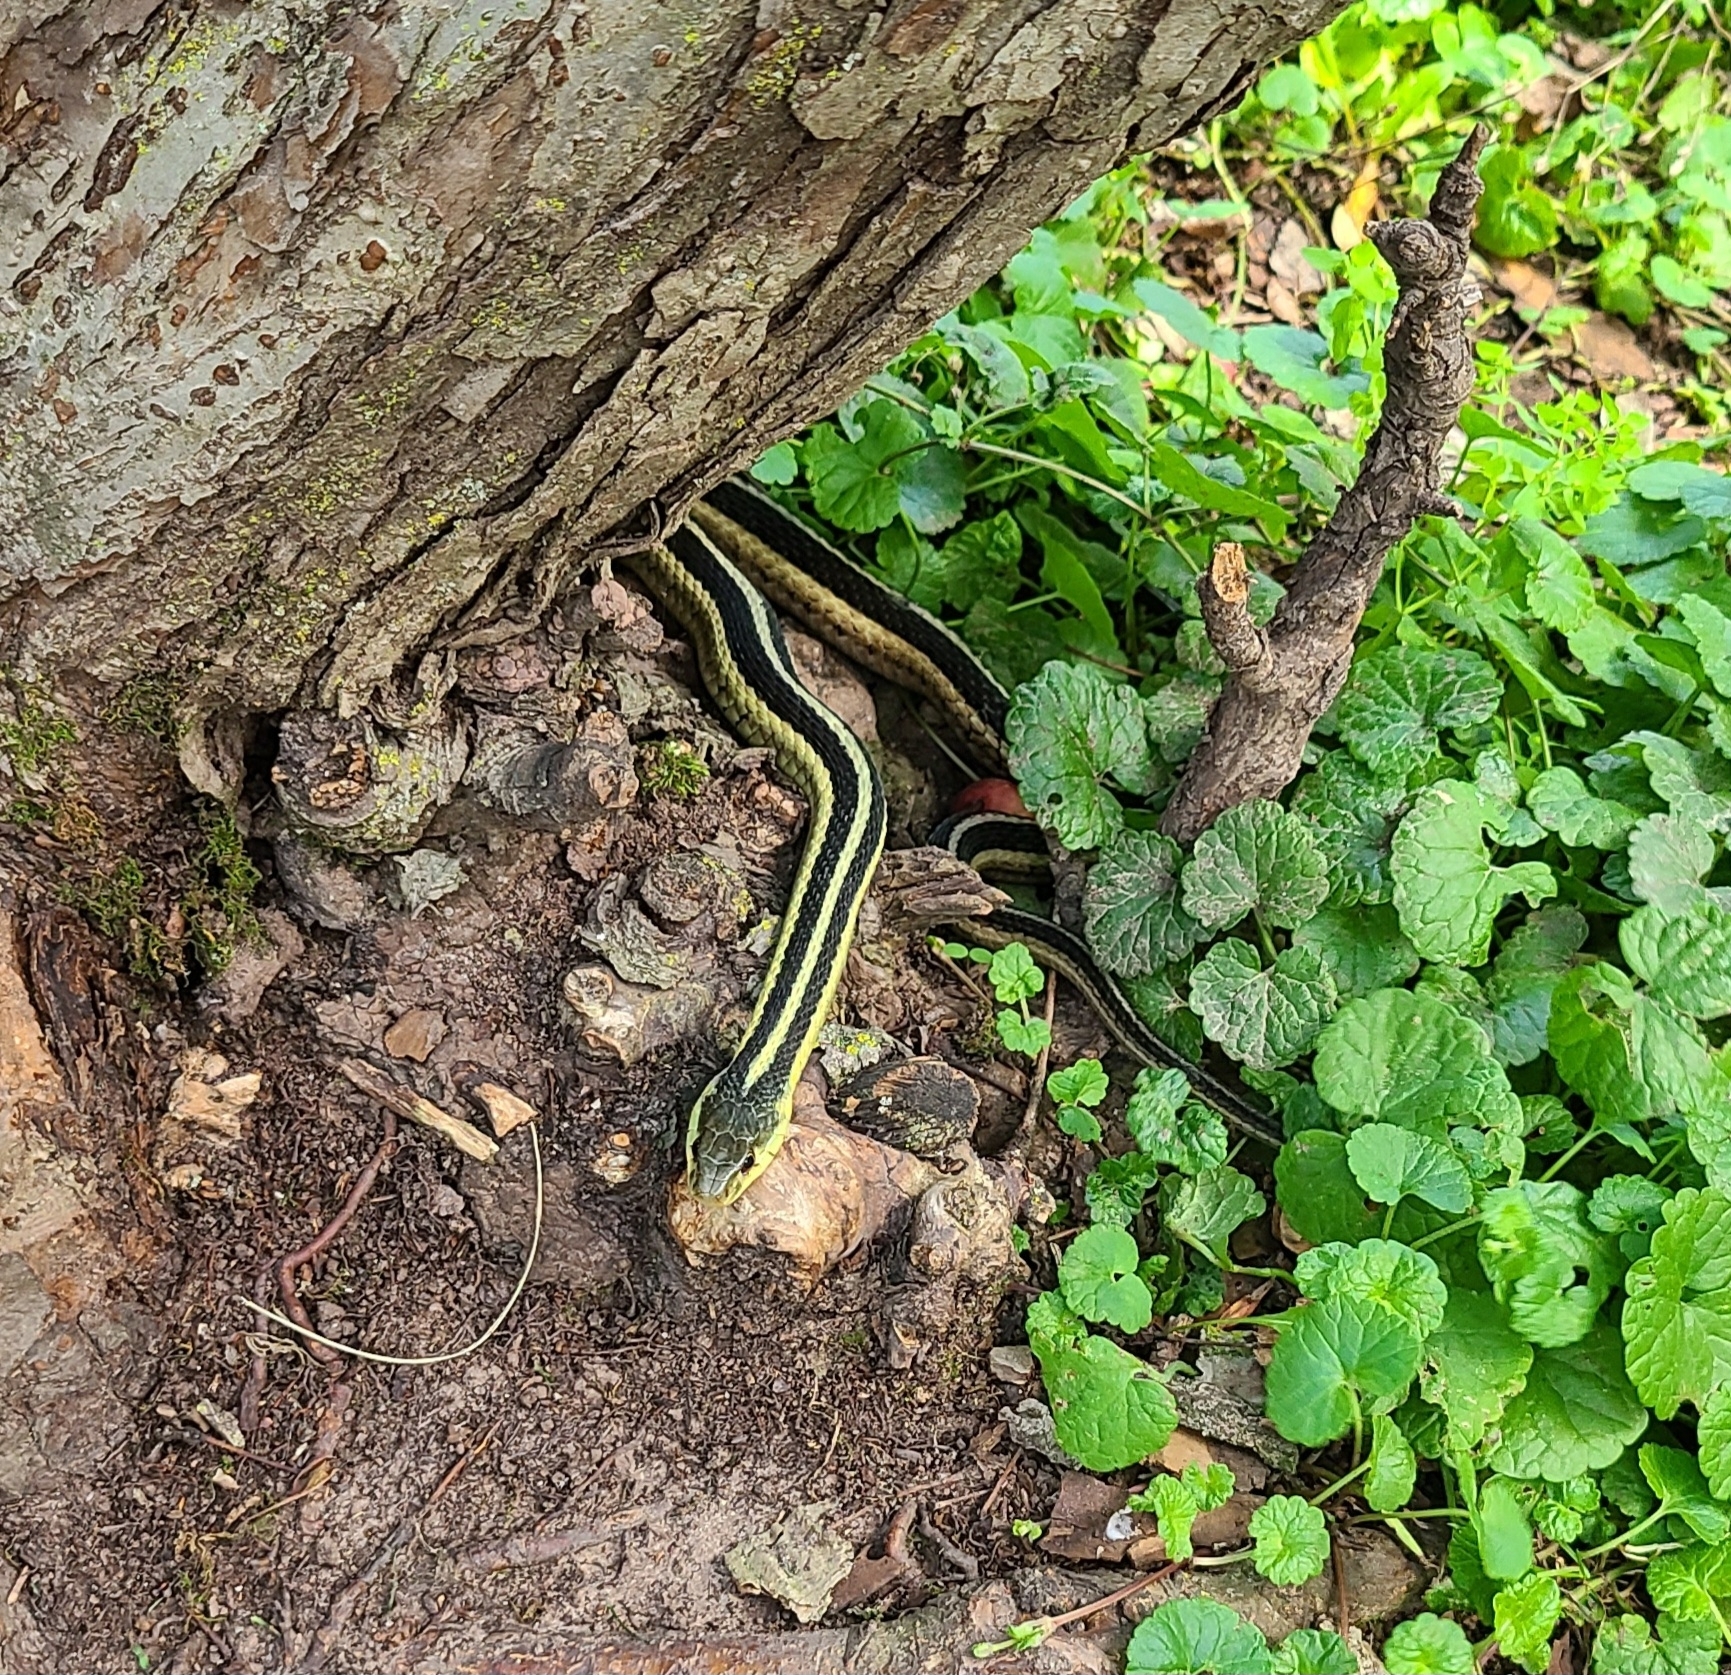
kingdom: Animalia
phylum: Chordata
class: Squamata
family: Colubridae
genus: Thamnophis
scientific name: Thamnophis sirtalis
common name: Common garter snake
